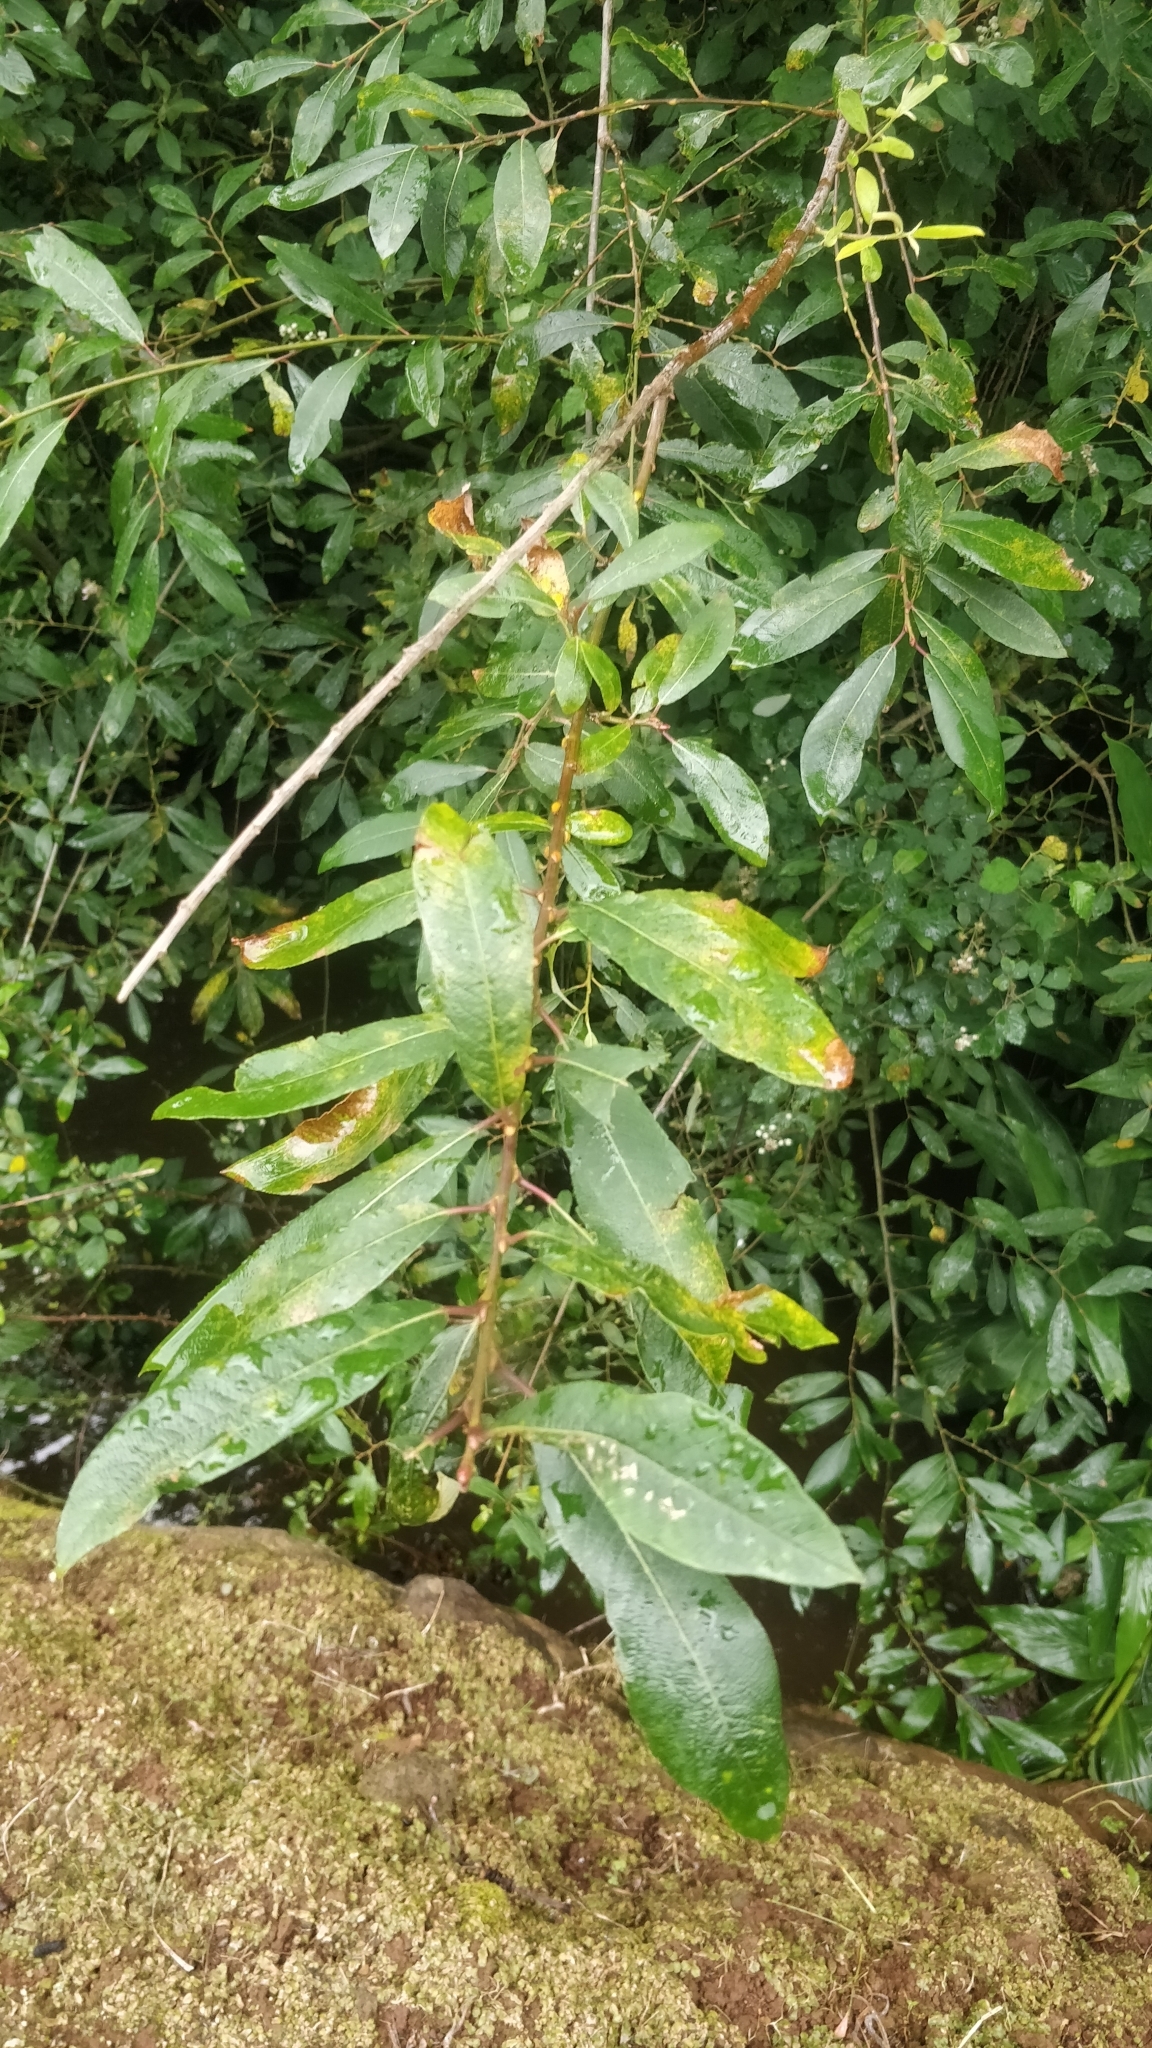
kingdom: Plantae
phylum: Tracheophyta
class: Magnoliopsida
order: Malpighiales
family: Salicaceae
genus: Salix
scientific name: Salix canariensis
